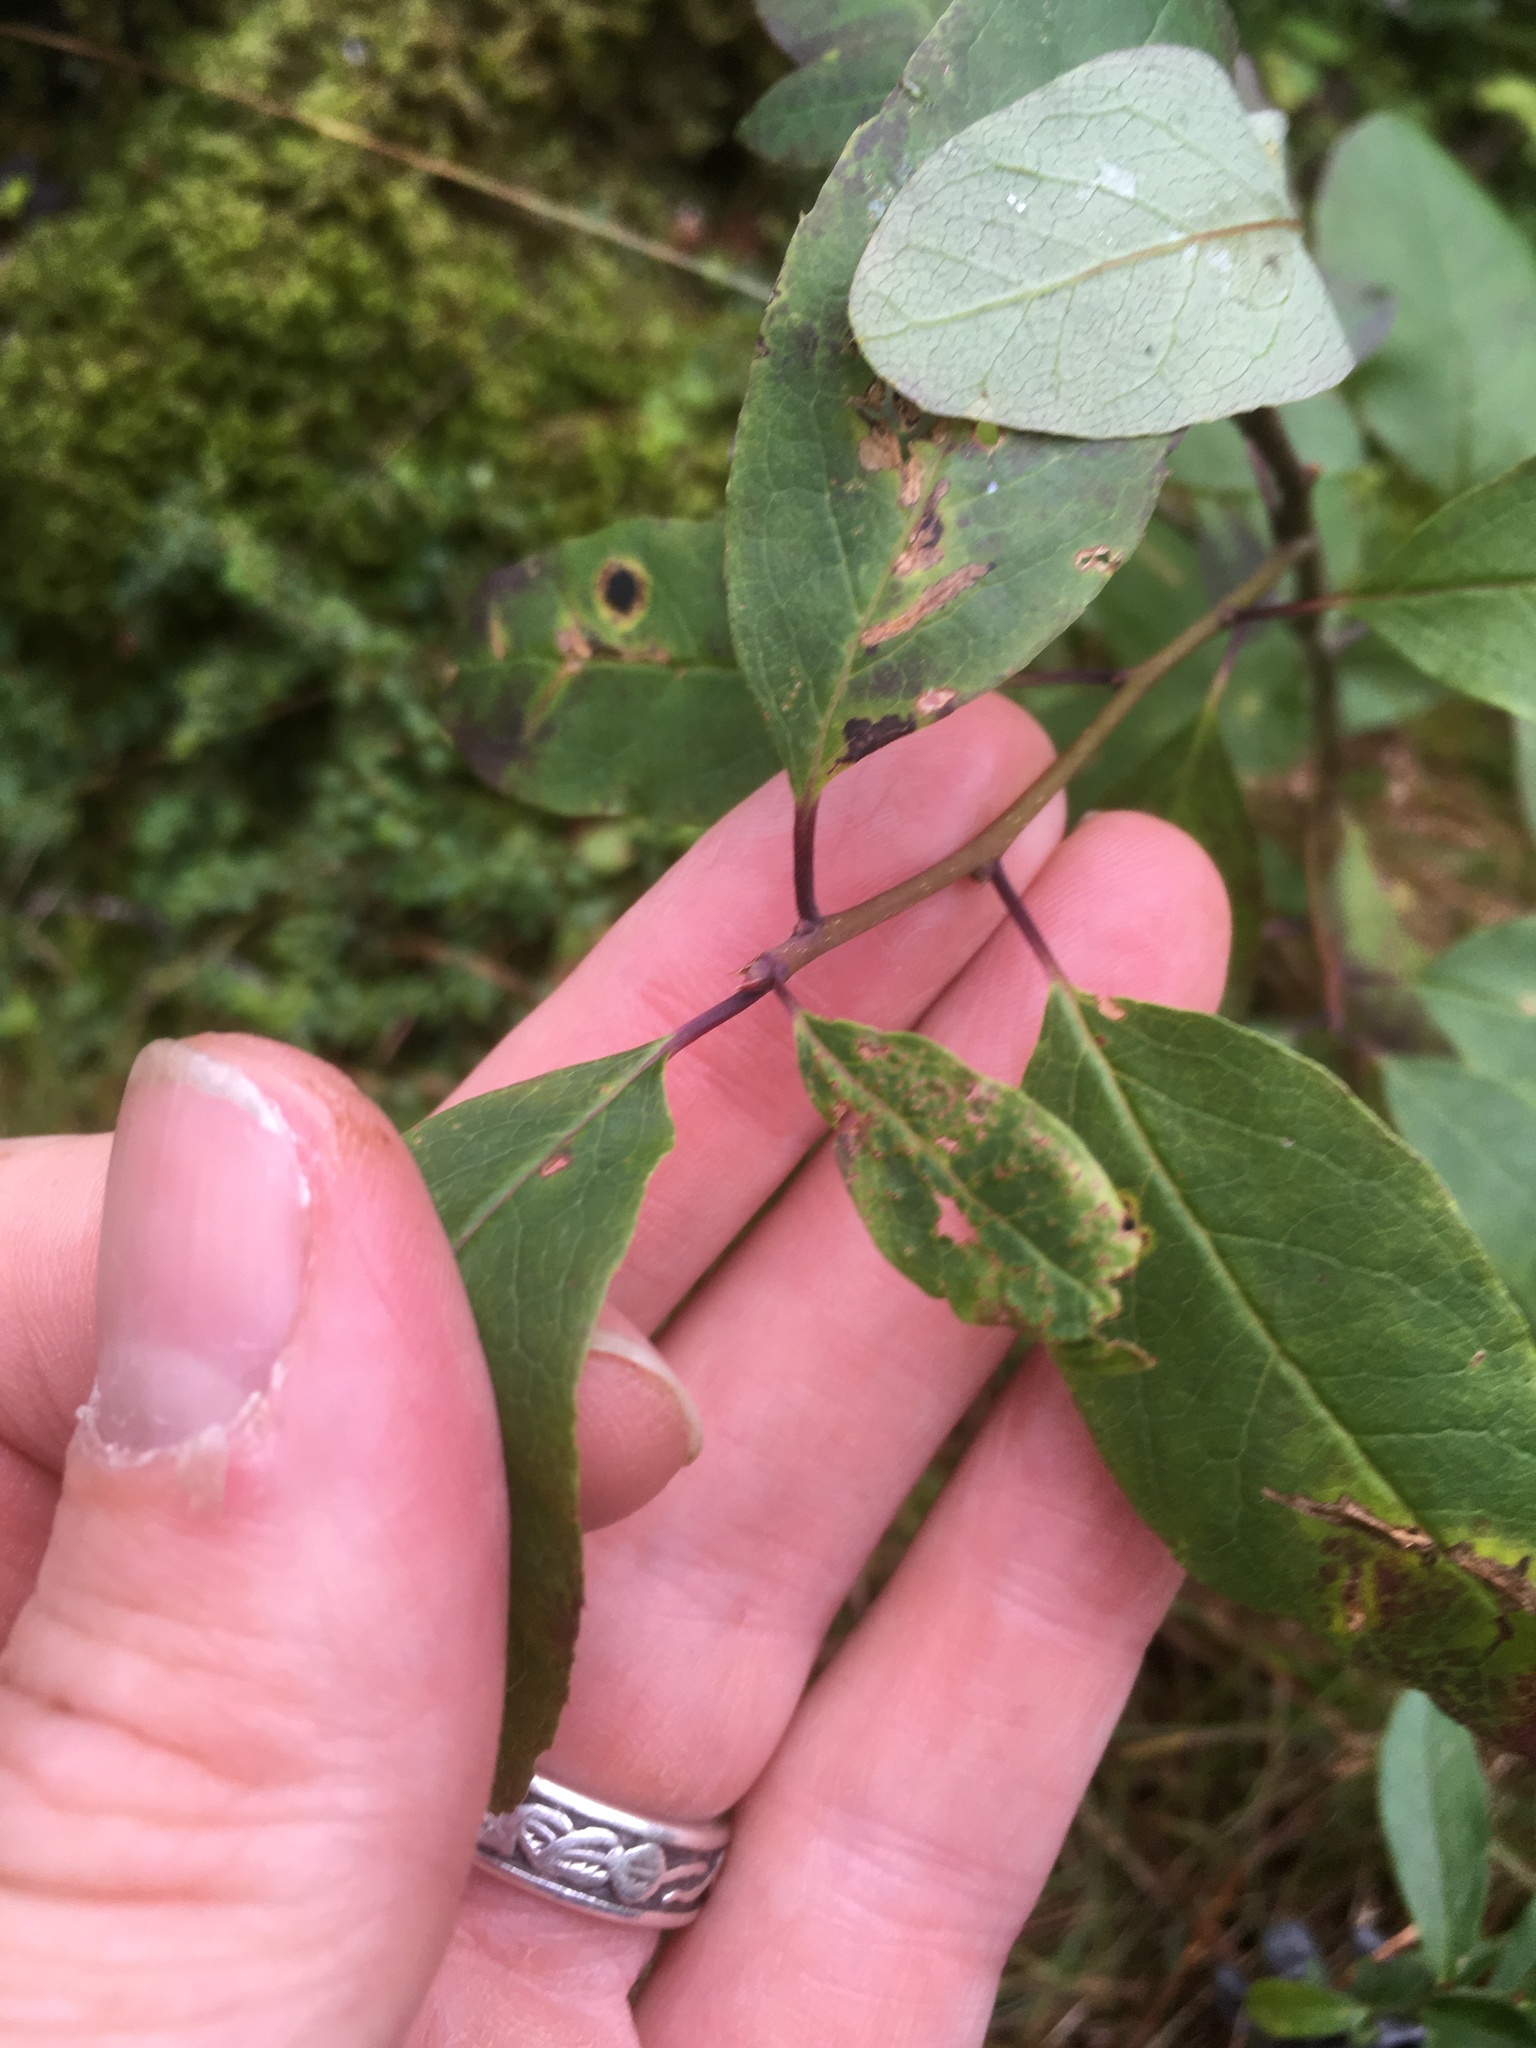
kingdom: Plantae
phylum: Tracheophyta
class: Magnoliopsida
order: Aquifoliales
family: Aquifoliaceae
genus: Ilex
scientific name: Ilex mucronata
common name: Catberry
